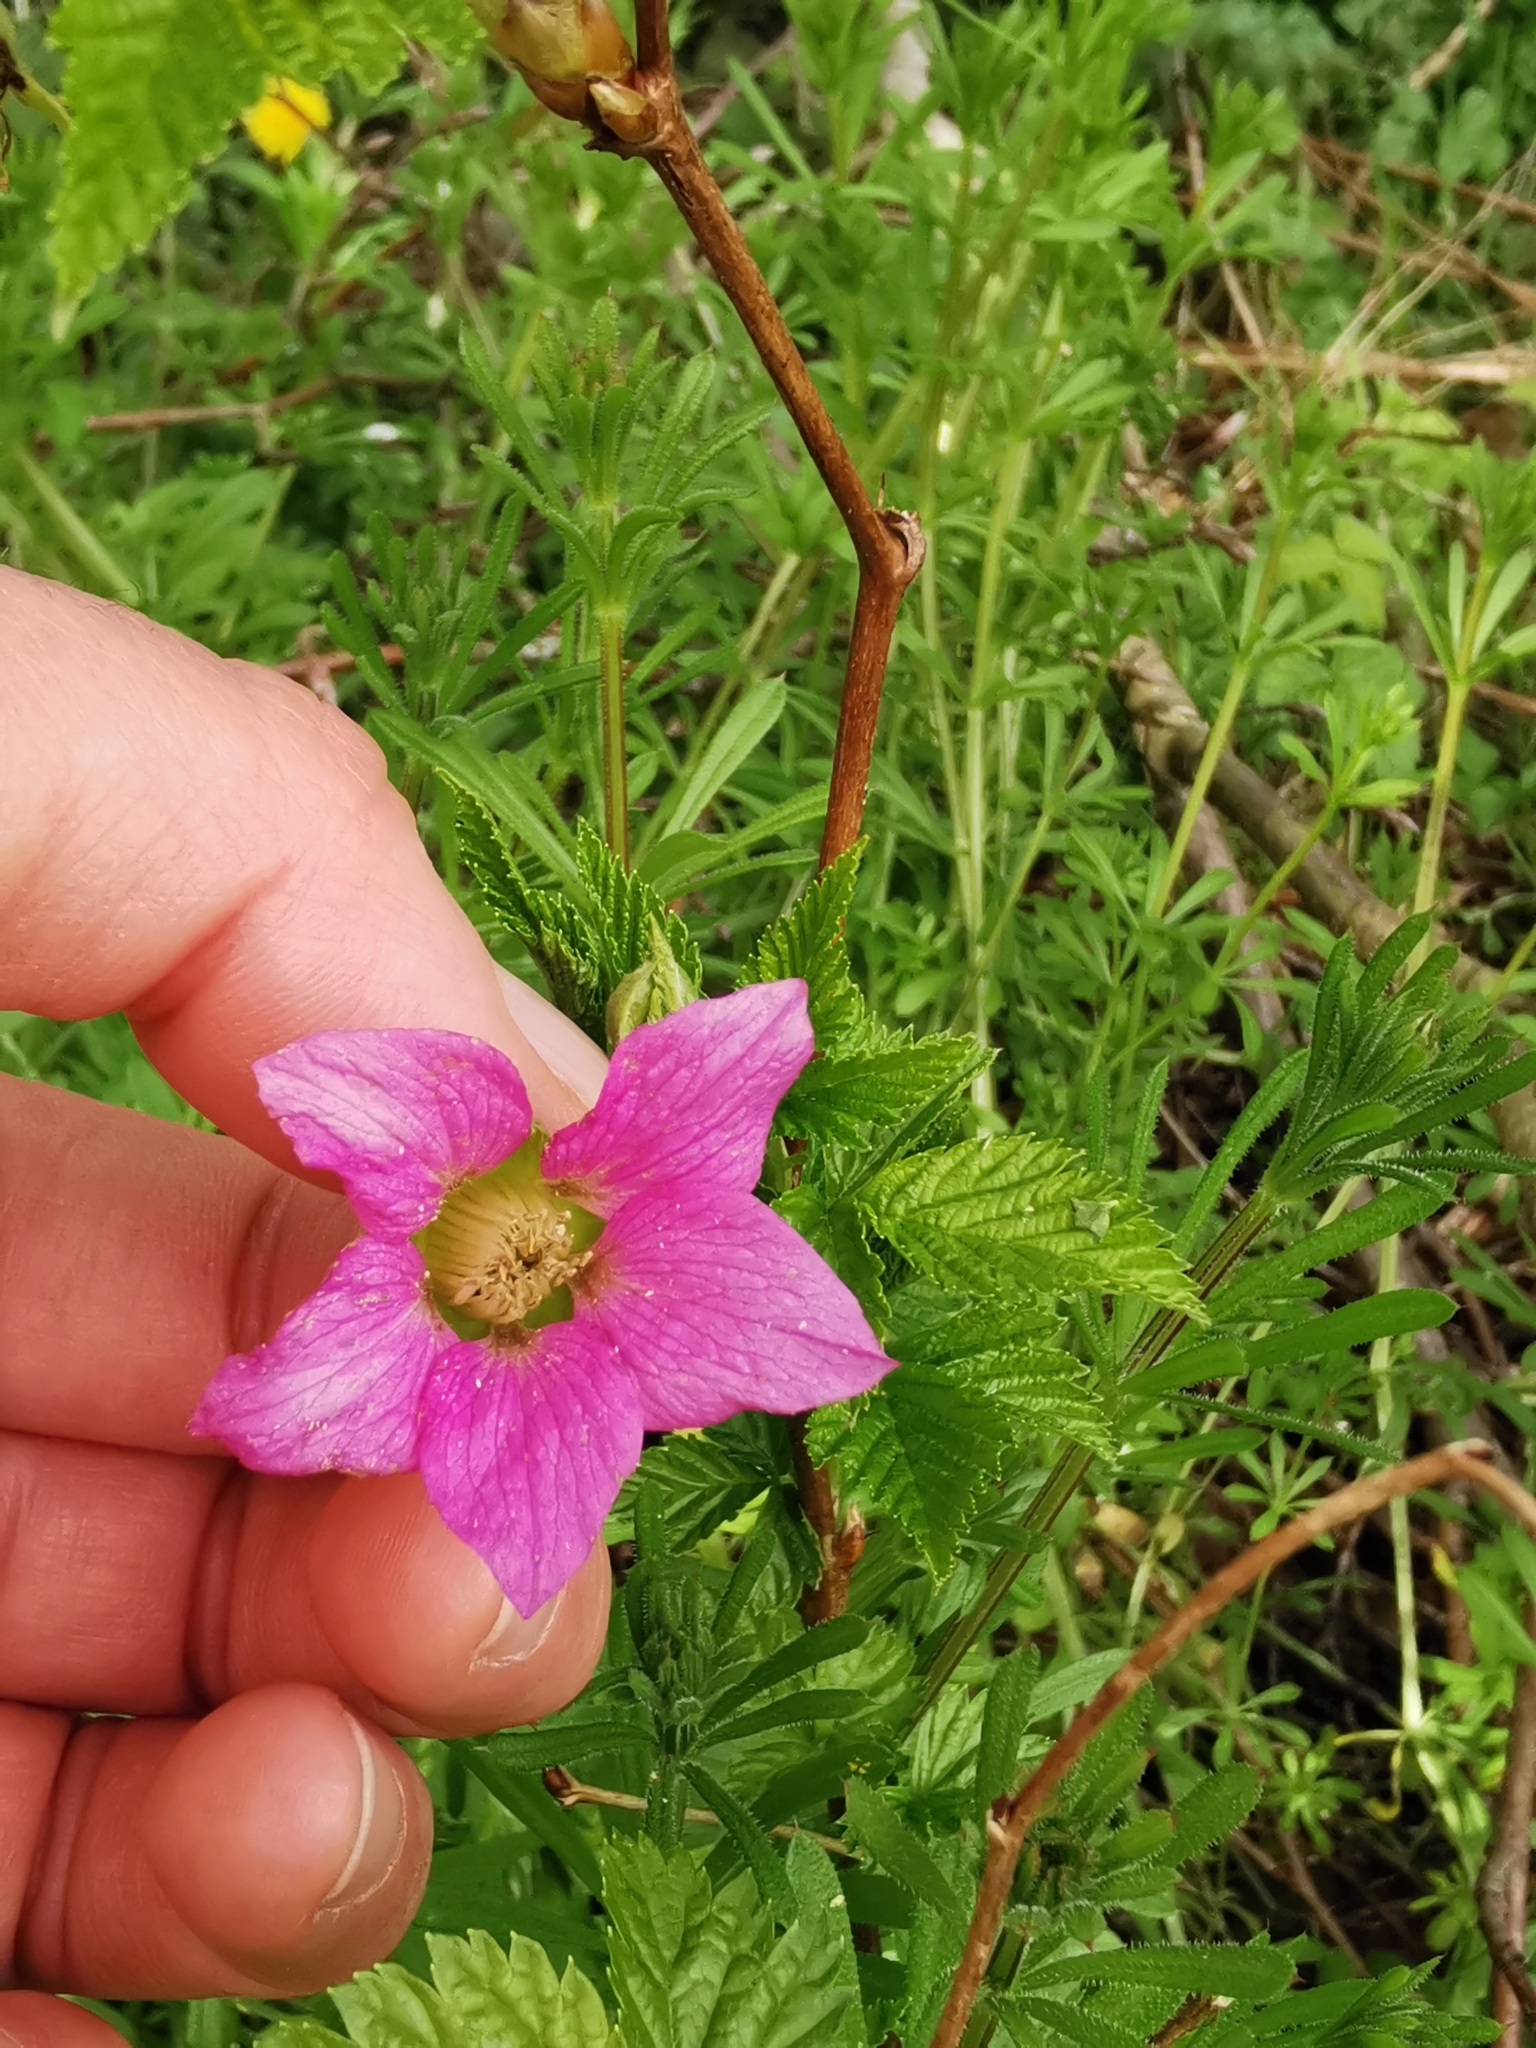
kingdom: Plantae
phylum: Tracheophyta
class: Magnoliopsida
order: Rosales
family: Rosaceae
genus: Rubus
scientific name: Rubus spectabilis
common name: Salmonberry
